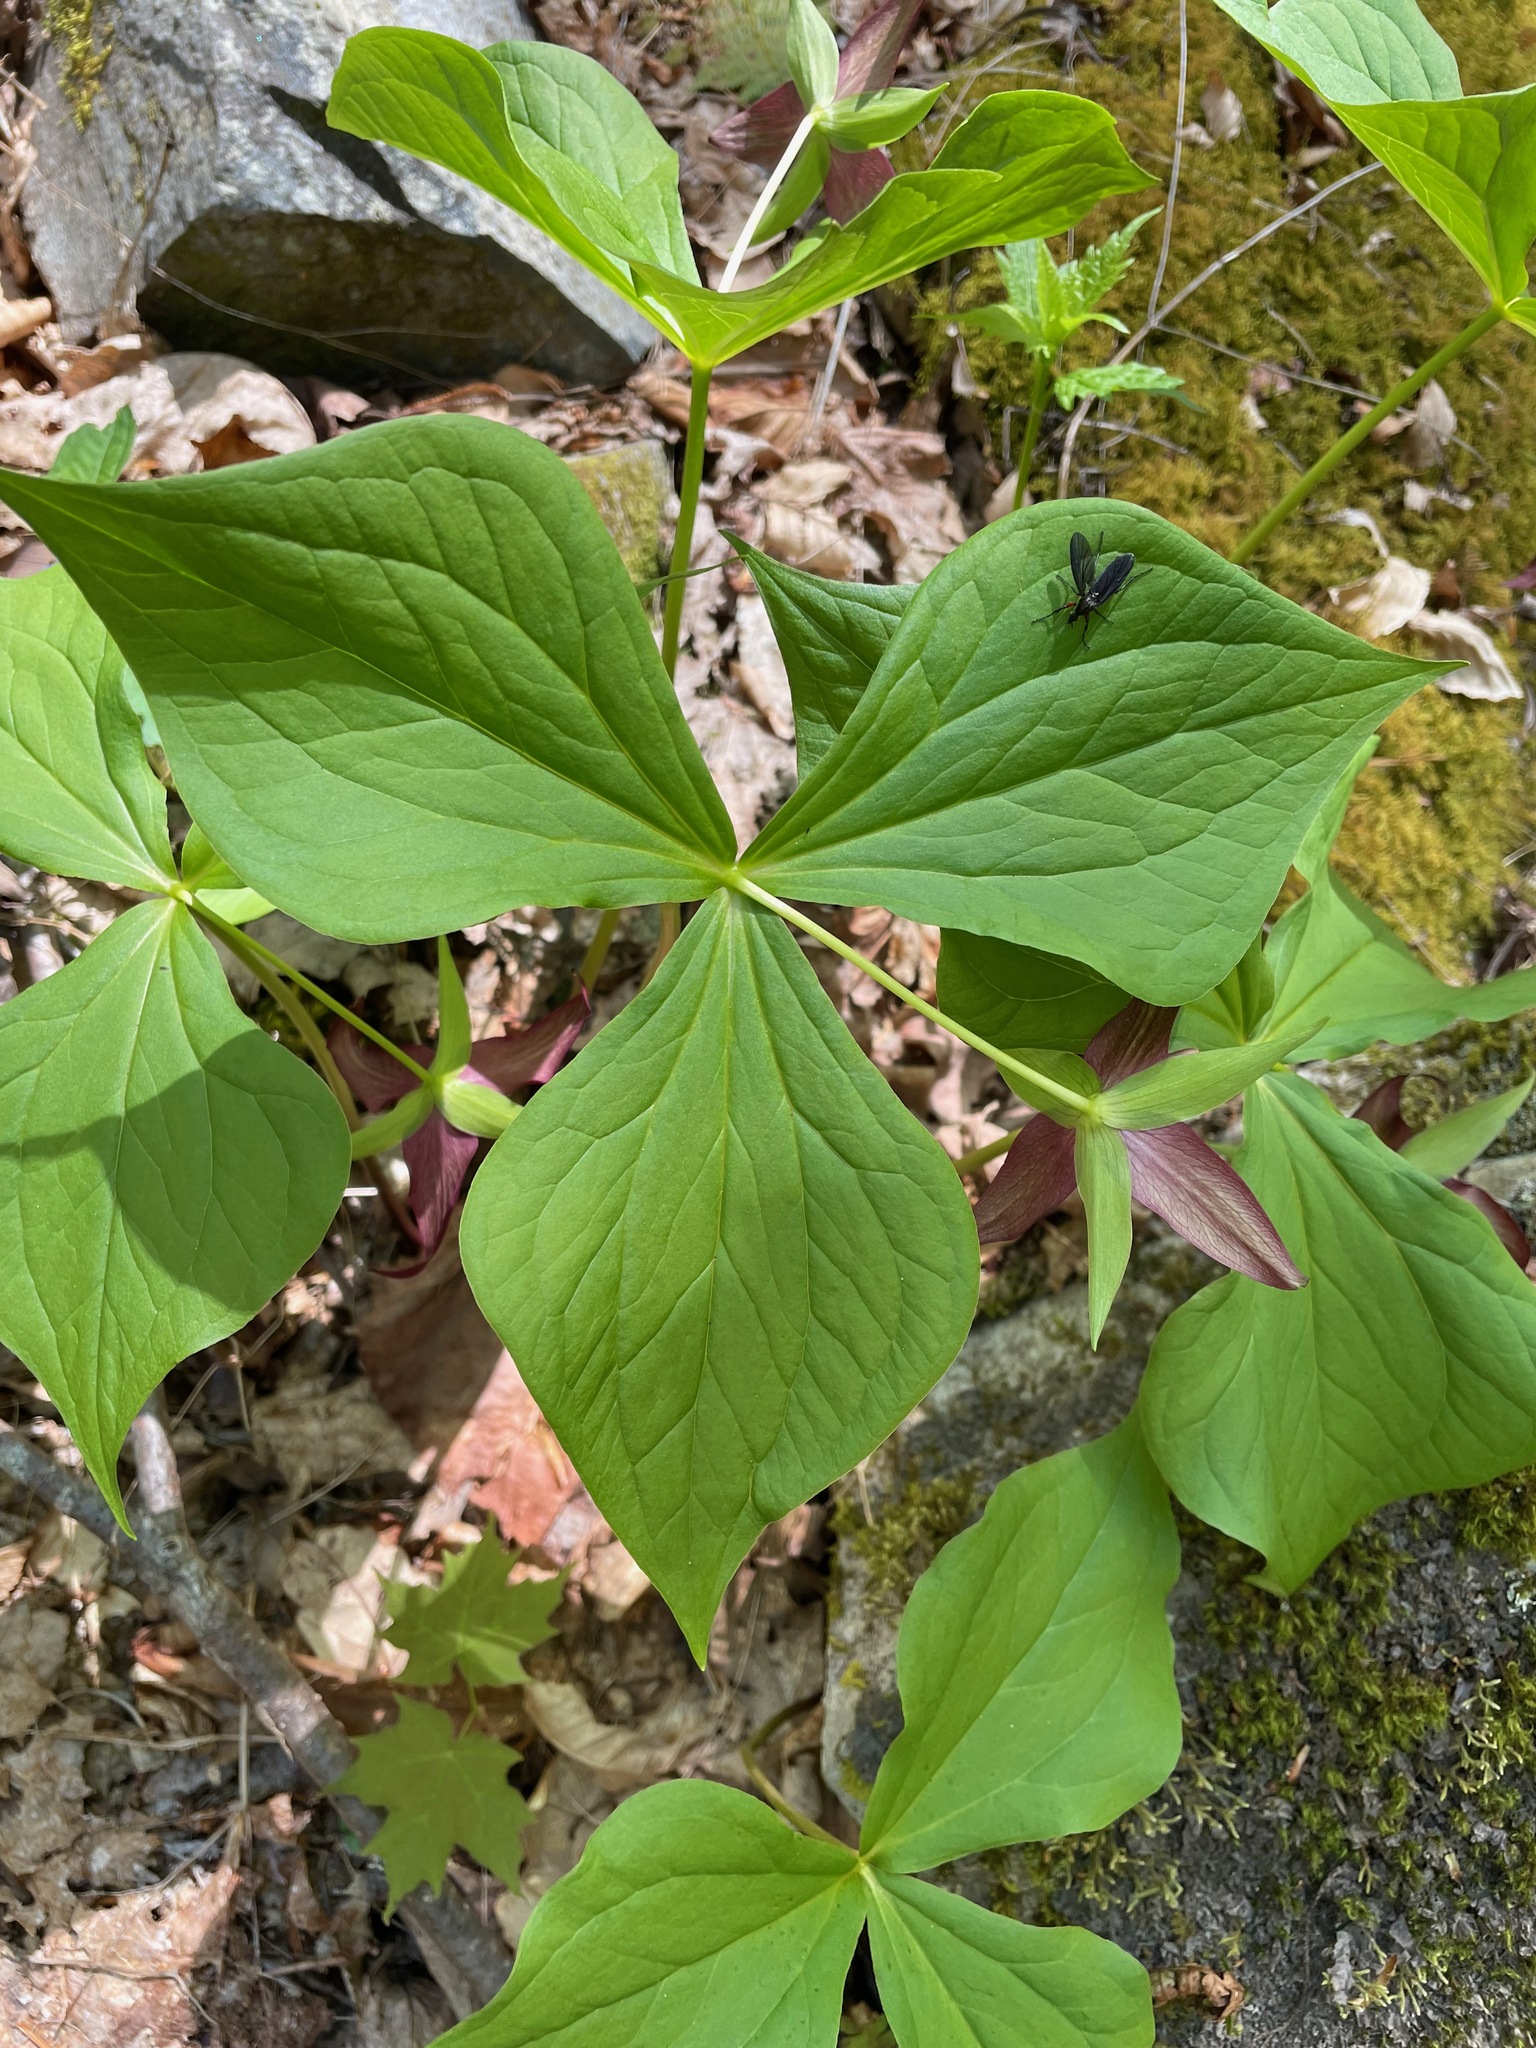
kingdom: Plantae
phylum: Tracheophyta
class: Liliopsida
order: Liliales
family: Melanthiaceae
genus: Trillium
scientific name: Trillium erectum
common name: Purple trillium
